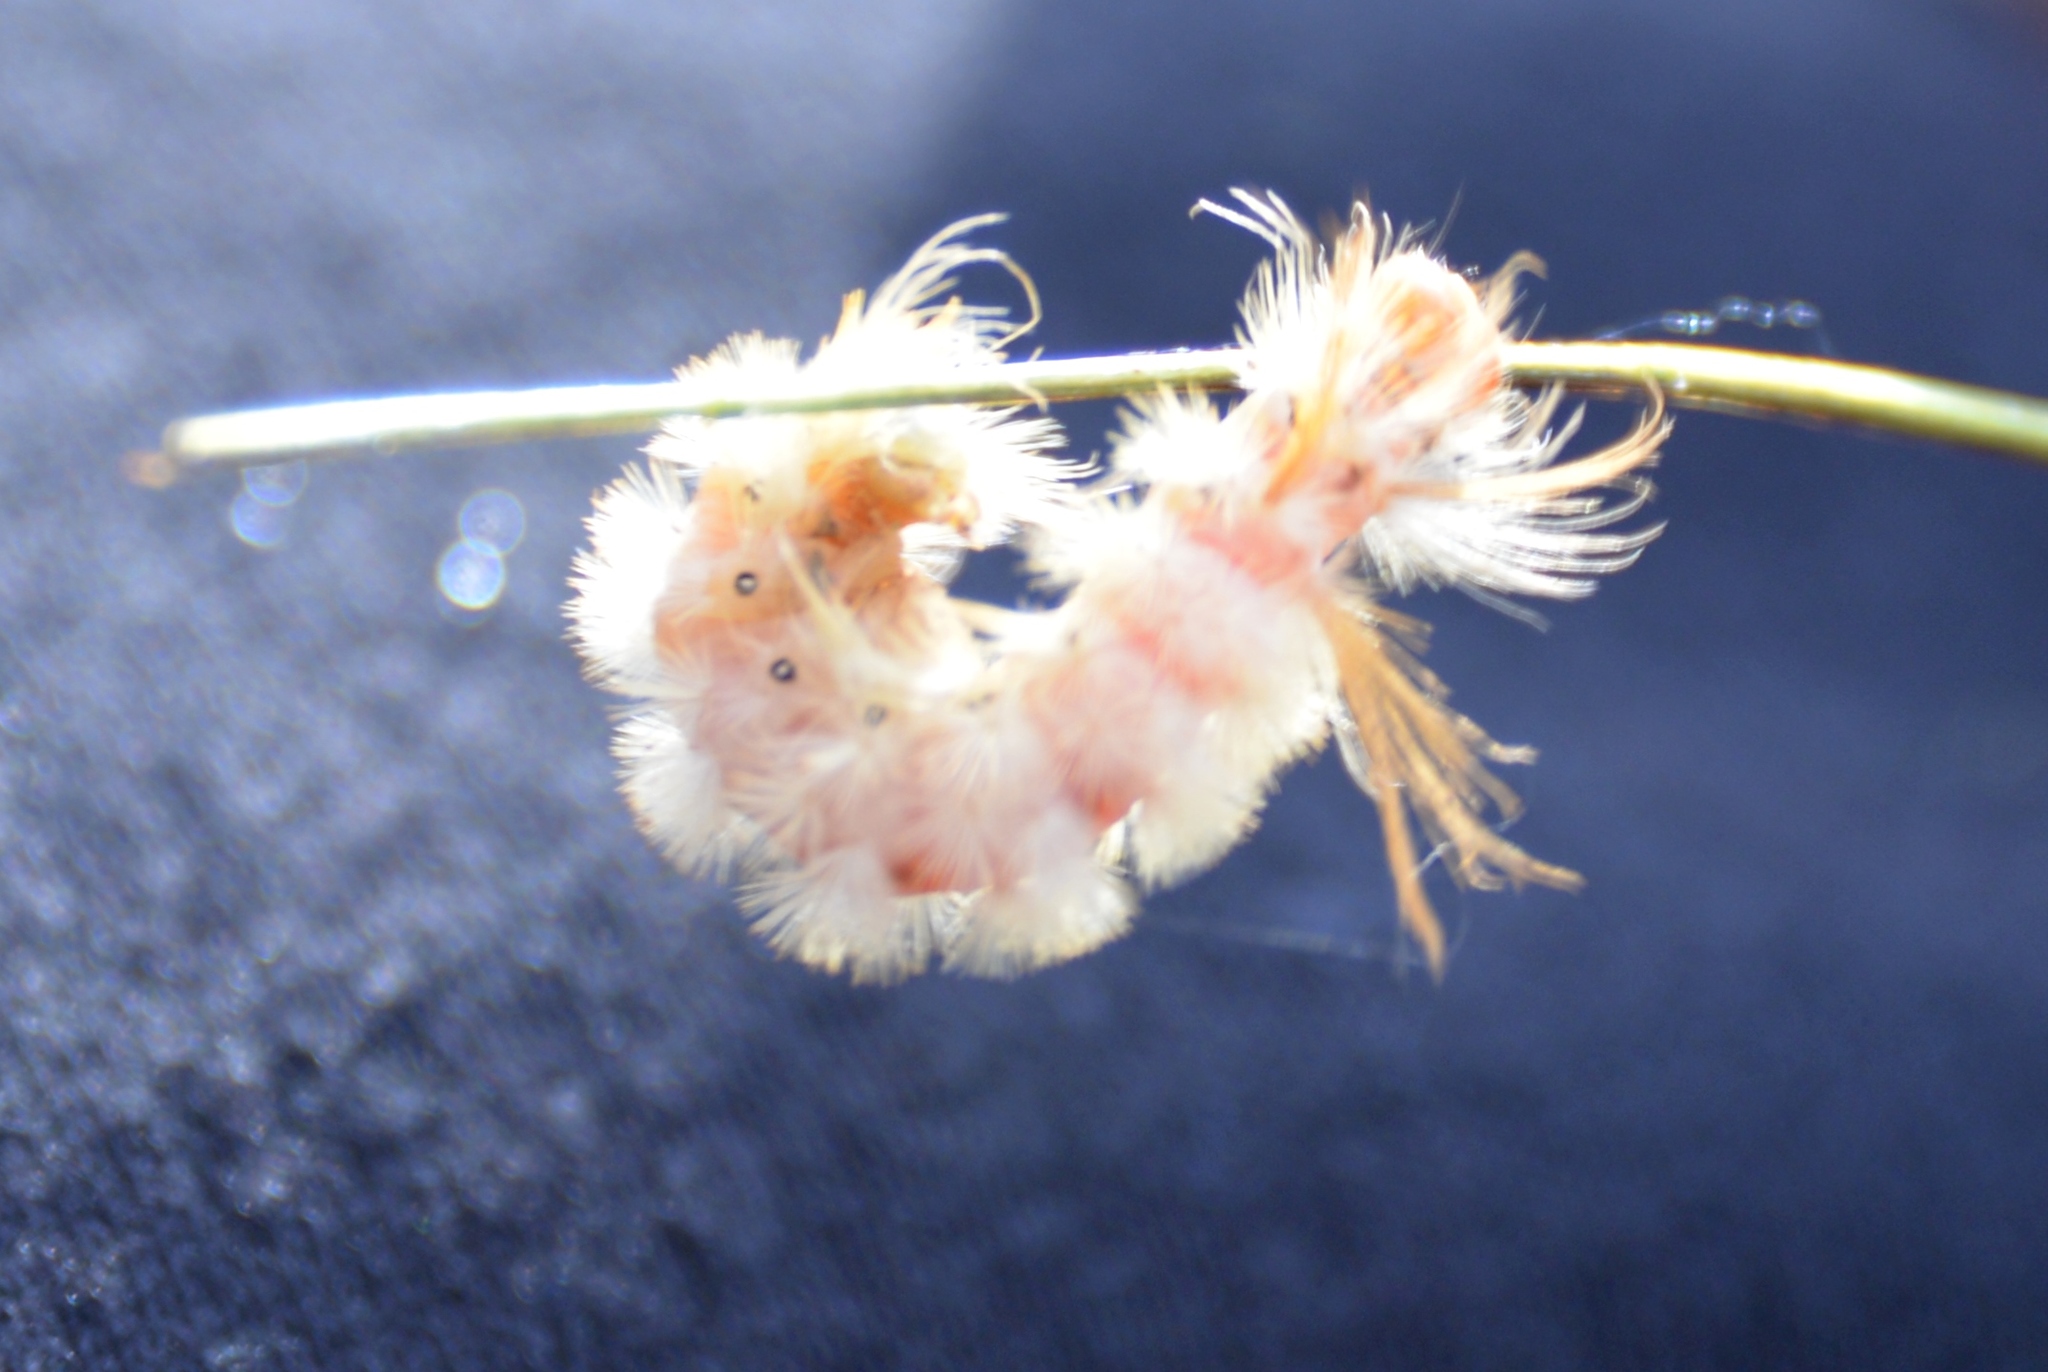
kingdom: Animalia
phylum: Arthropoda
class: Insecta
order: Lepidoptera
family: Erebidae
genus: Halysidota
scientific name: Halysidota harrisii
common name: Sycamore tussock moth
